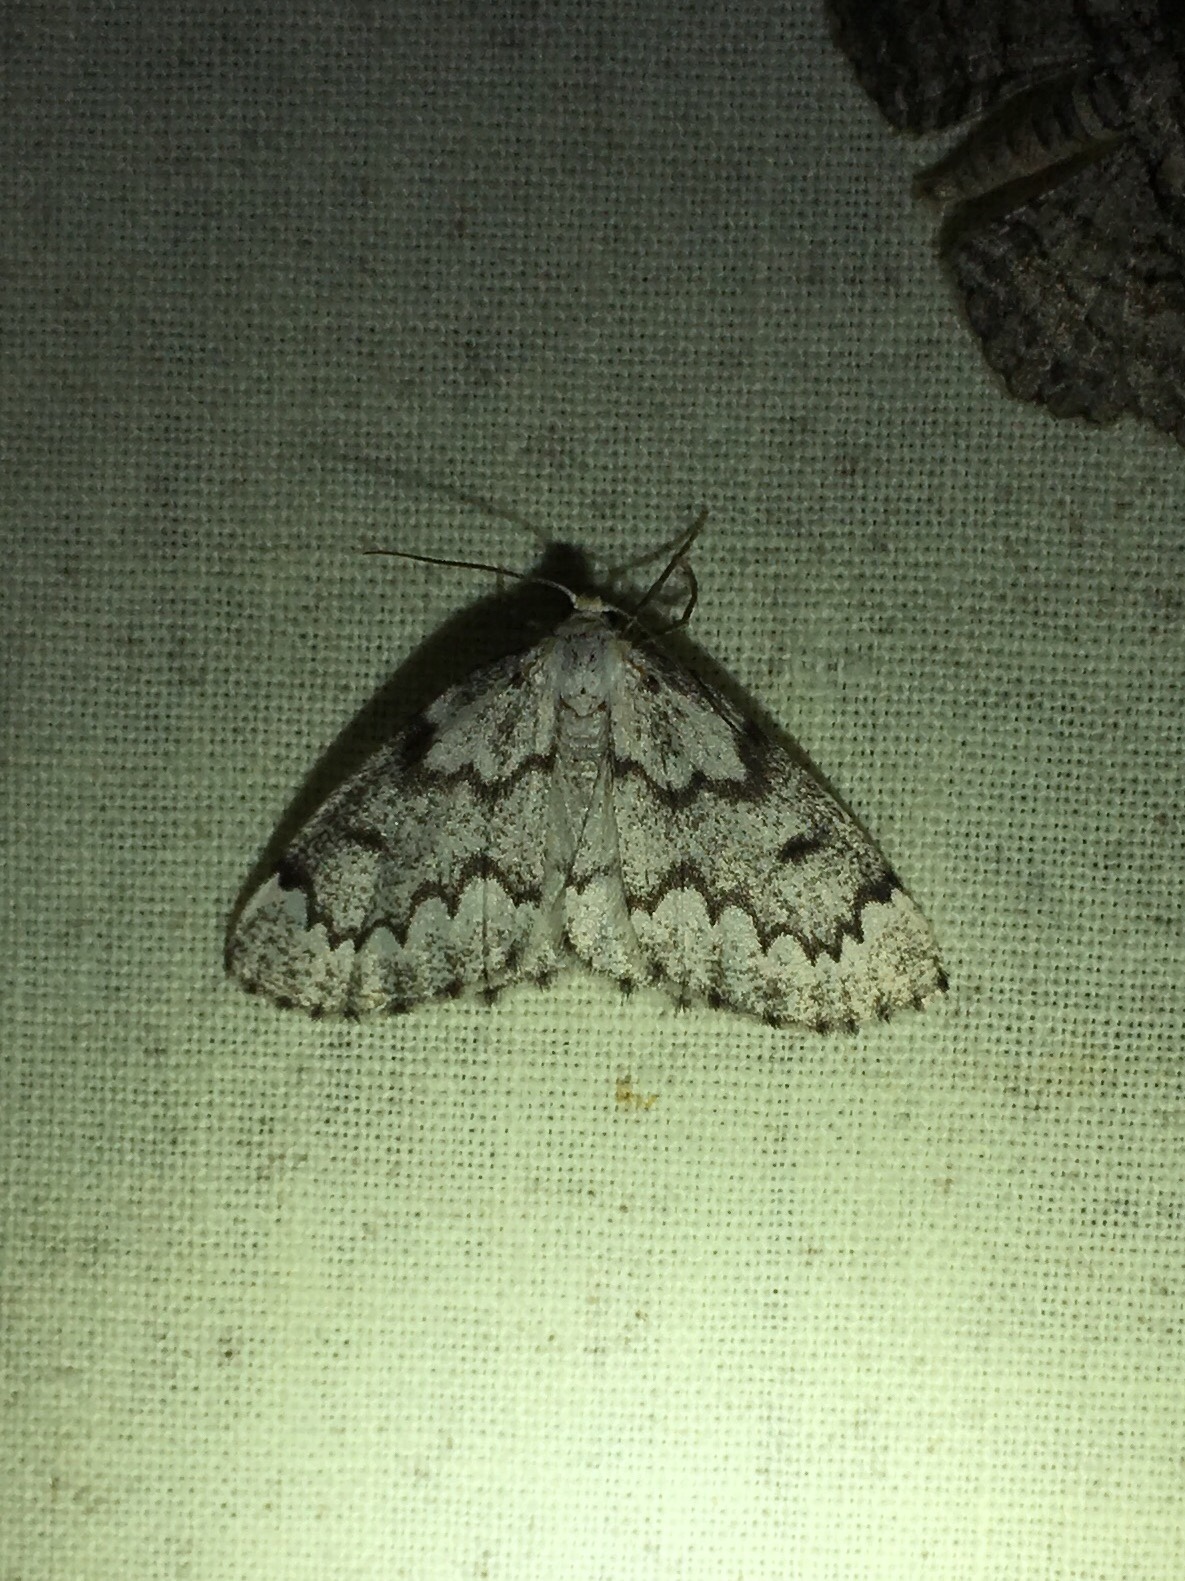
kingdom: Animalia
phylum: Arthropoda
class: Insecta
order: Lepidoptera
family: Geometridae
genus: Nepytia
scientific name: Nepytia canosaria
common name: False hemlock looper
